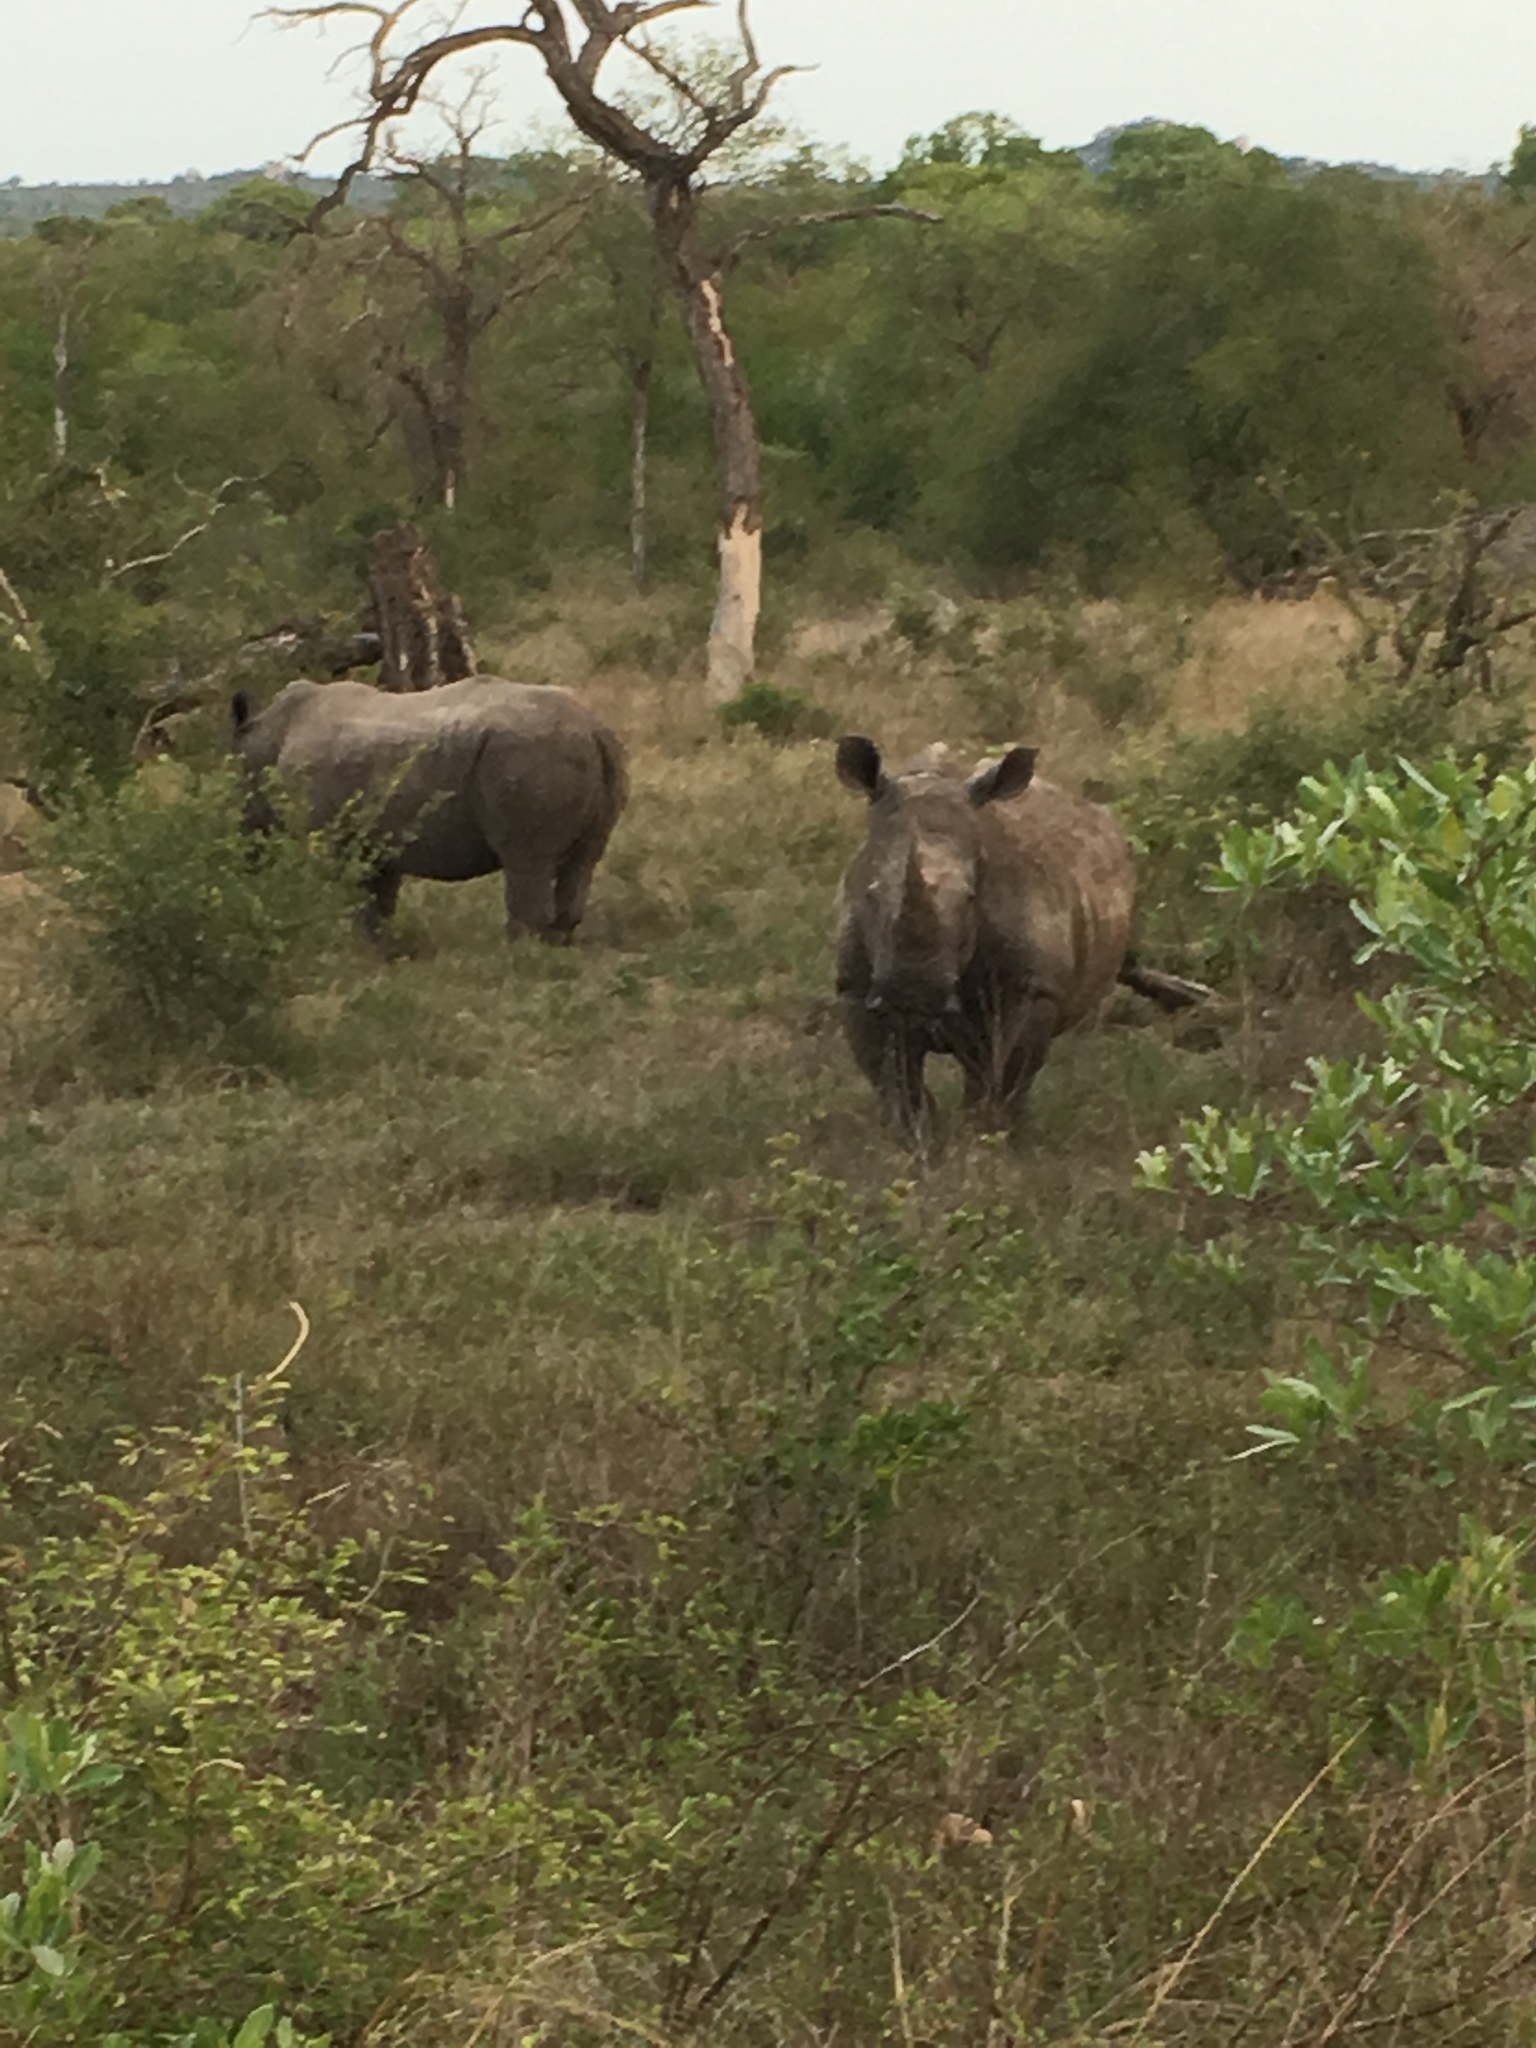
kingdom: Animalia
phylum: Chordata
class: Mammalia
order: Perissodactyla
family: Rhinocerotidae
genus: Ceratotherium
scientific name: Ceratotherium simum
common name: White rhinoceros
